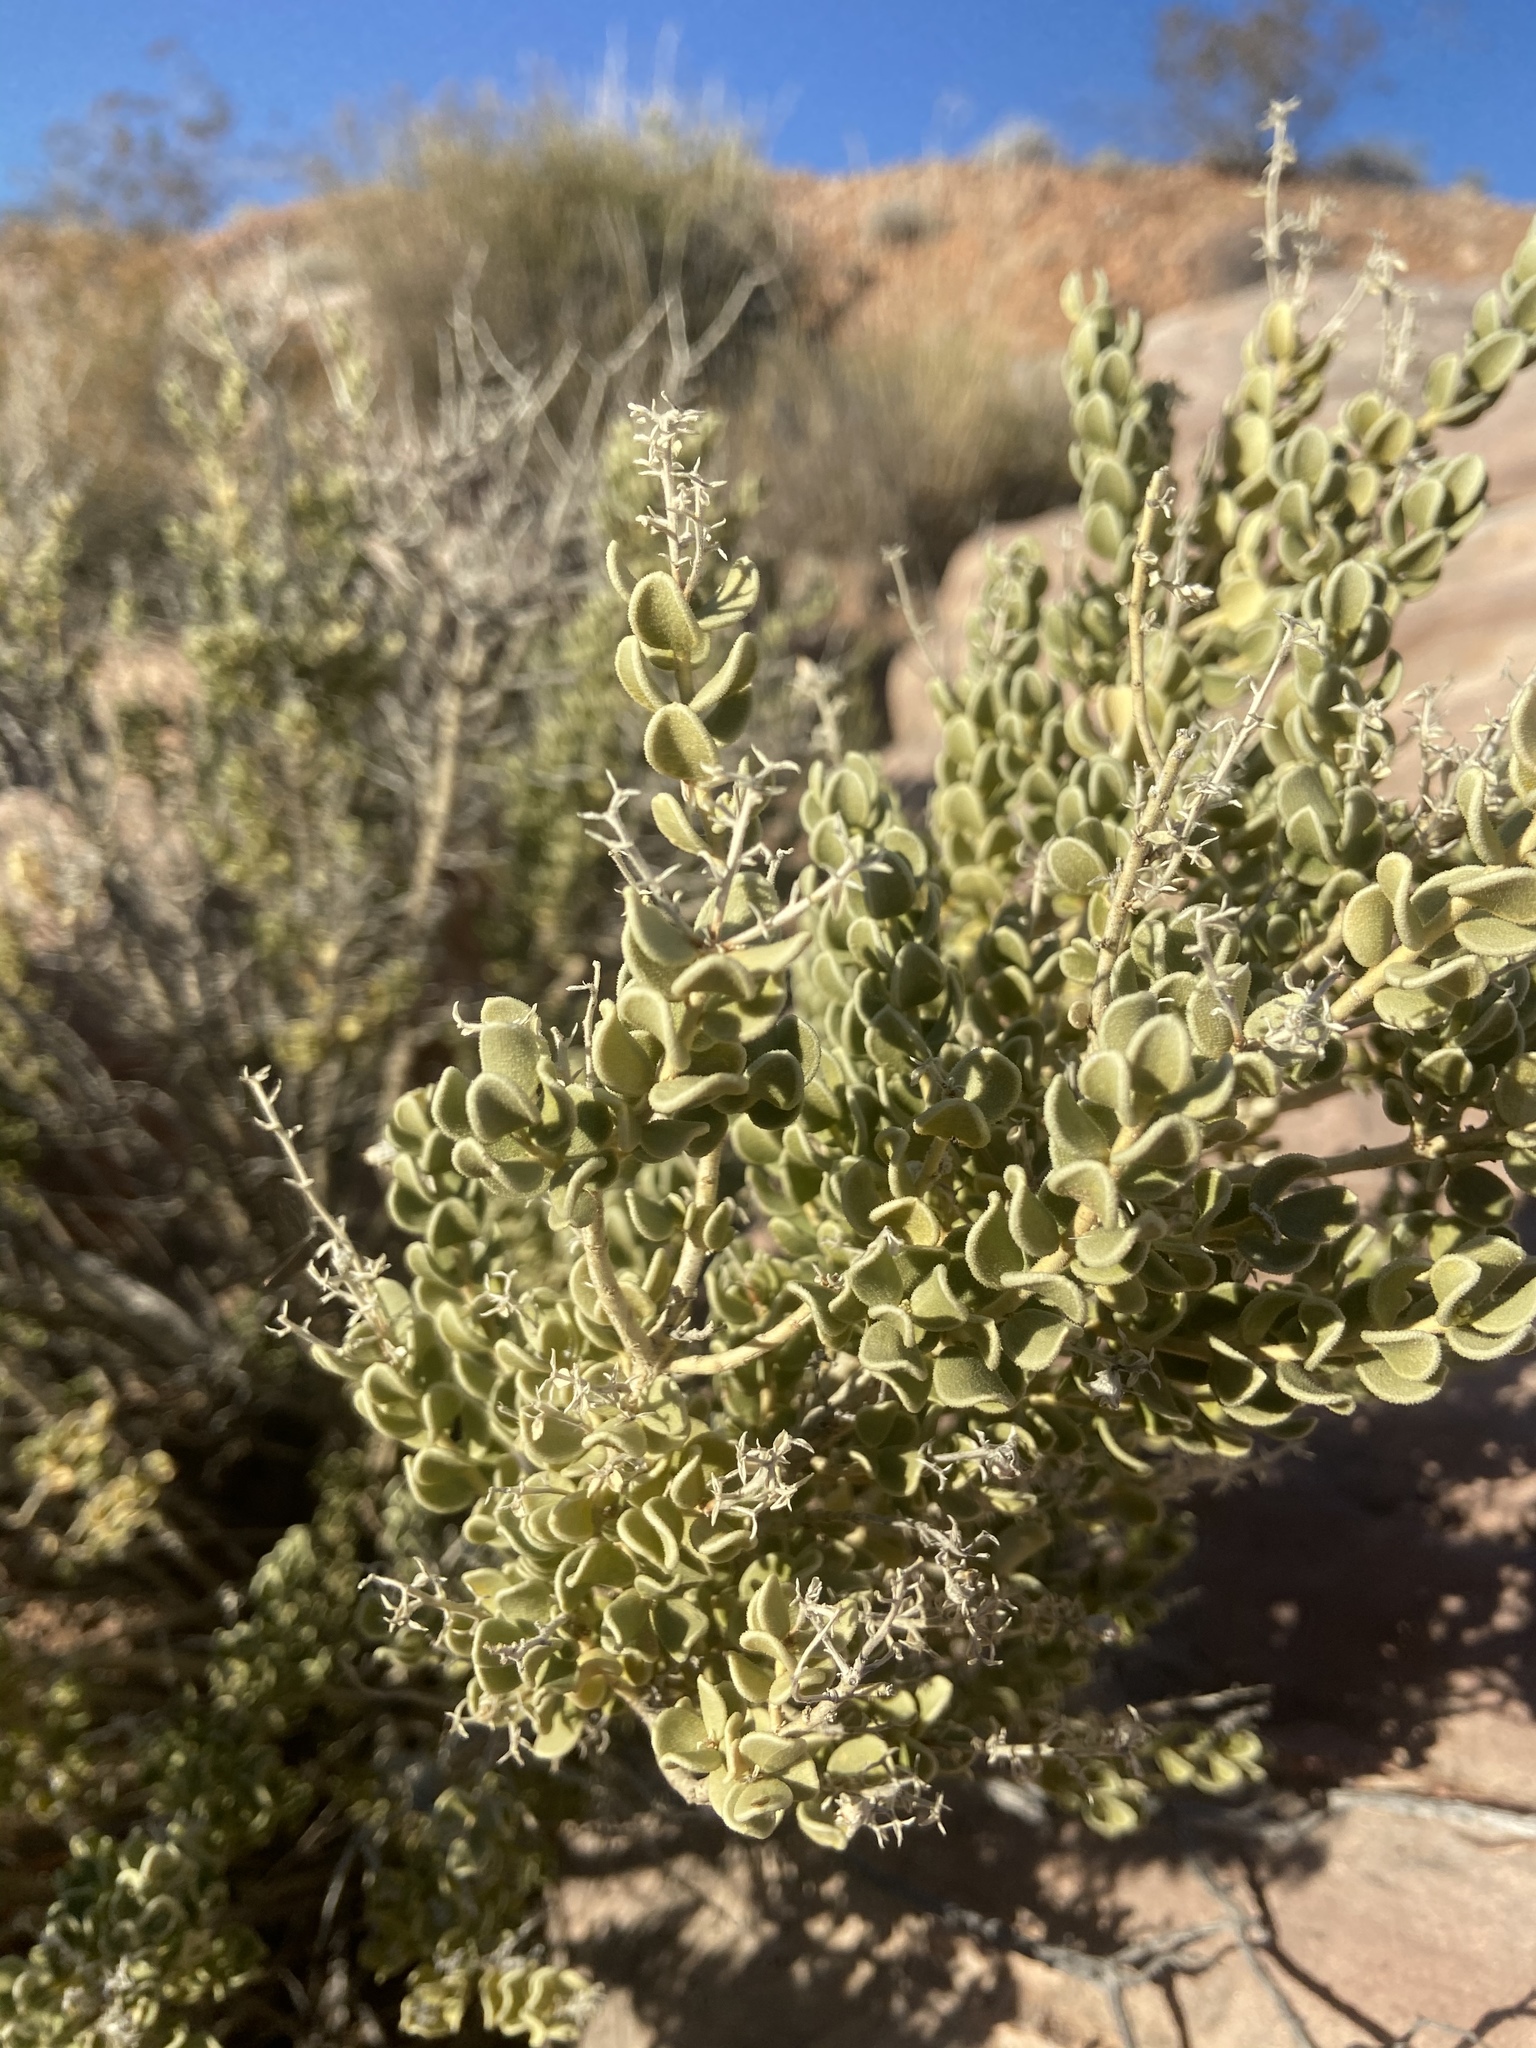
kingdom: Plantae
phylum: Tracheophyta
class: Magnoliopsida
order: Celastrales
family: Celastraceae
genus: Mortonia
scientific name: Mortonia utahensis
